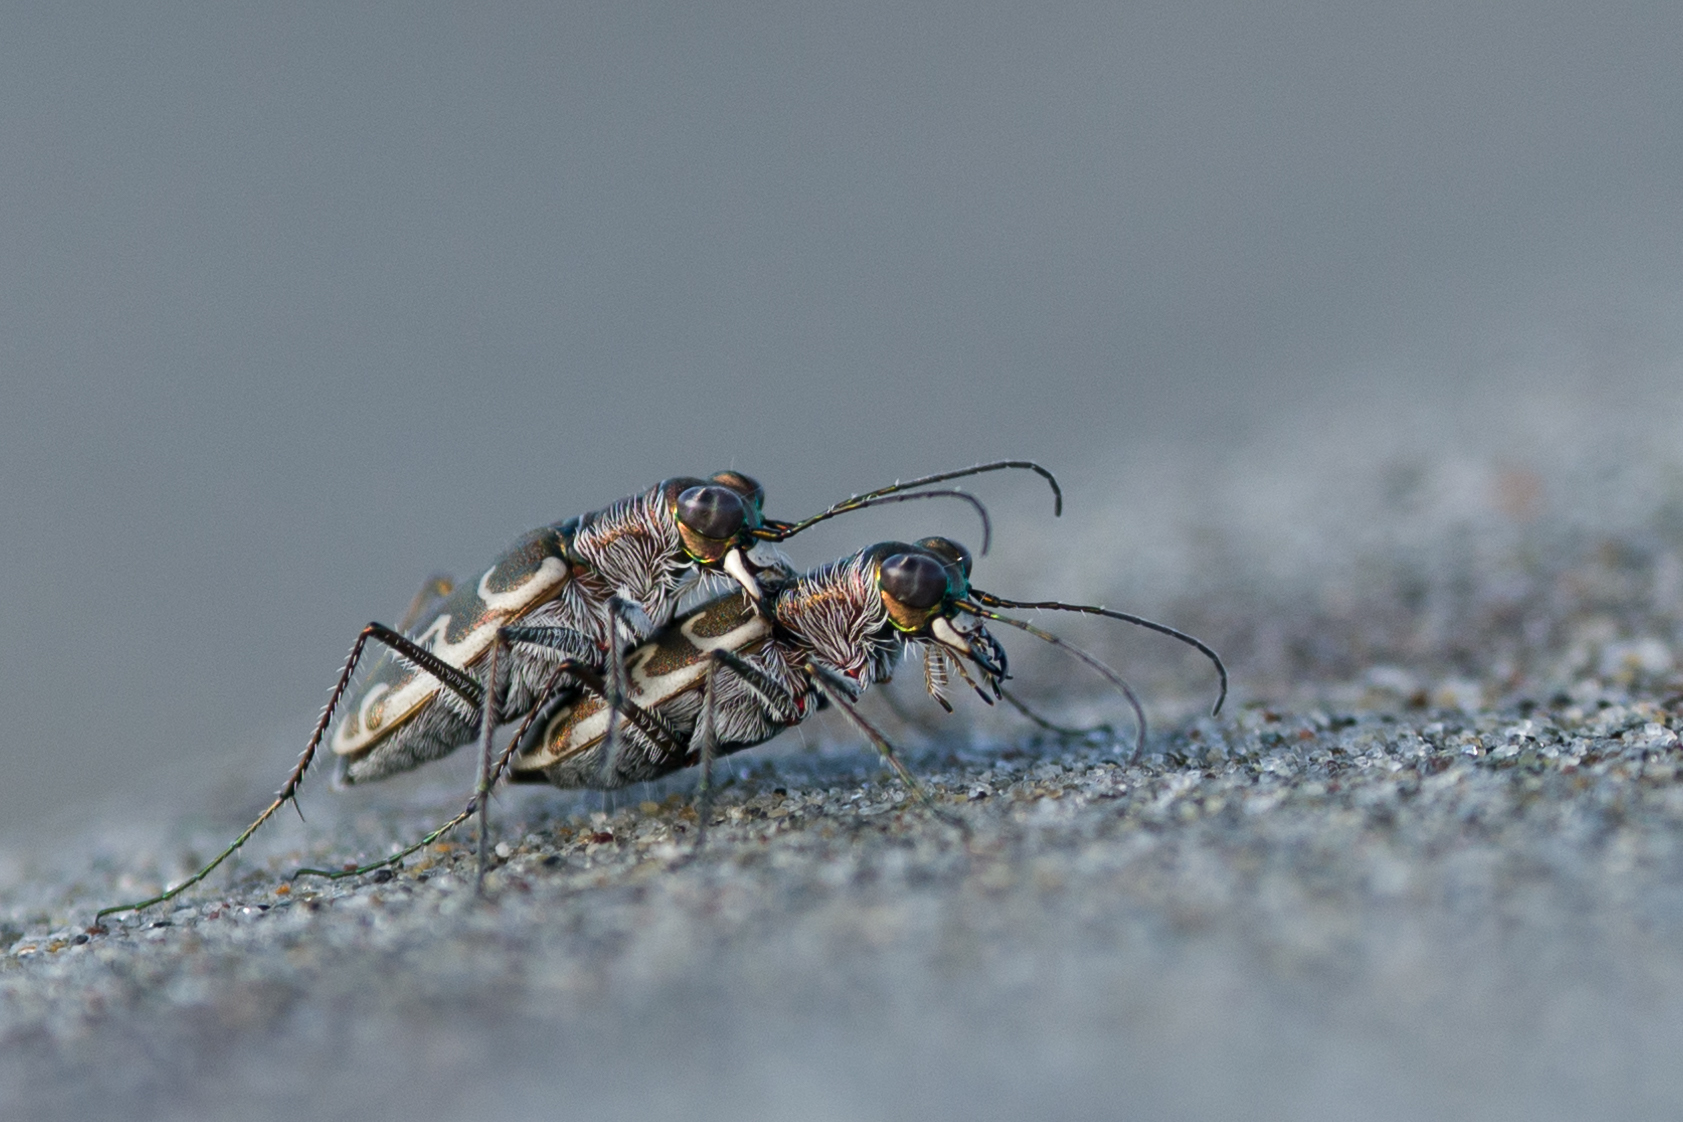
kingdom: Animalia
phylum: Arthropoda
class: Insecta
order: Coleoptera
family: Carabidae
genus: Cylindera
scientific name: Cylindera trisignata
